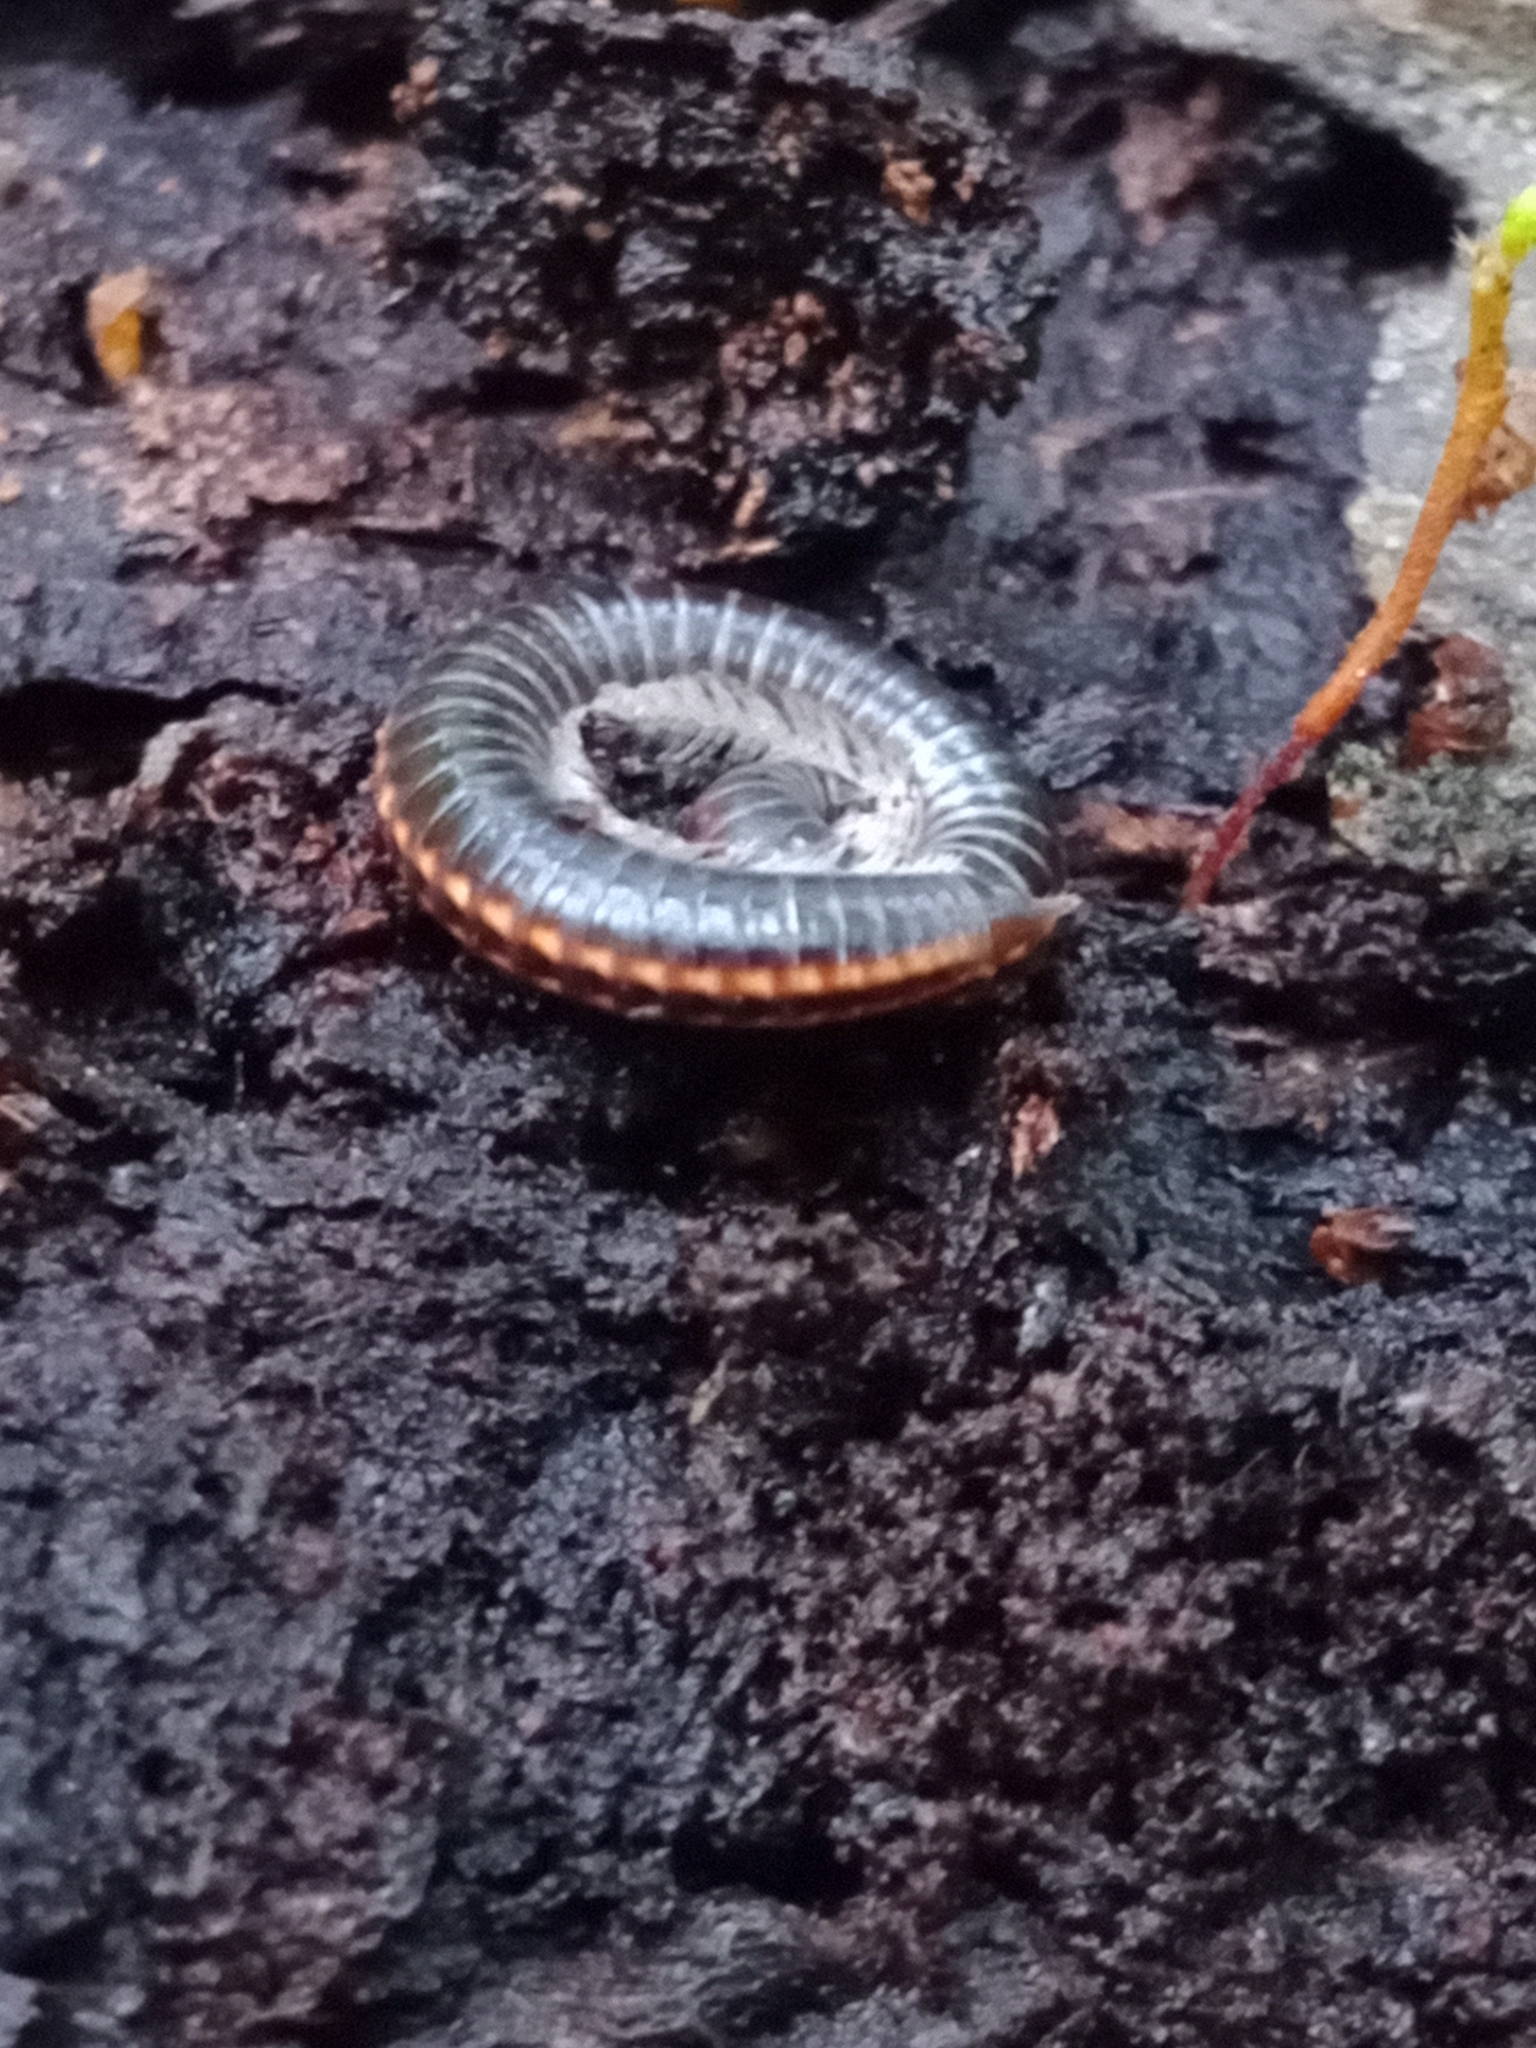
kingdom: Animalia
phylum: Arthropoda
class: Diplopoda
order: Julida
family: Julidae
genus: Ommatoiulus
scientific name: Ommatoiulus sabulosus
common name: Striped millipede
